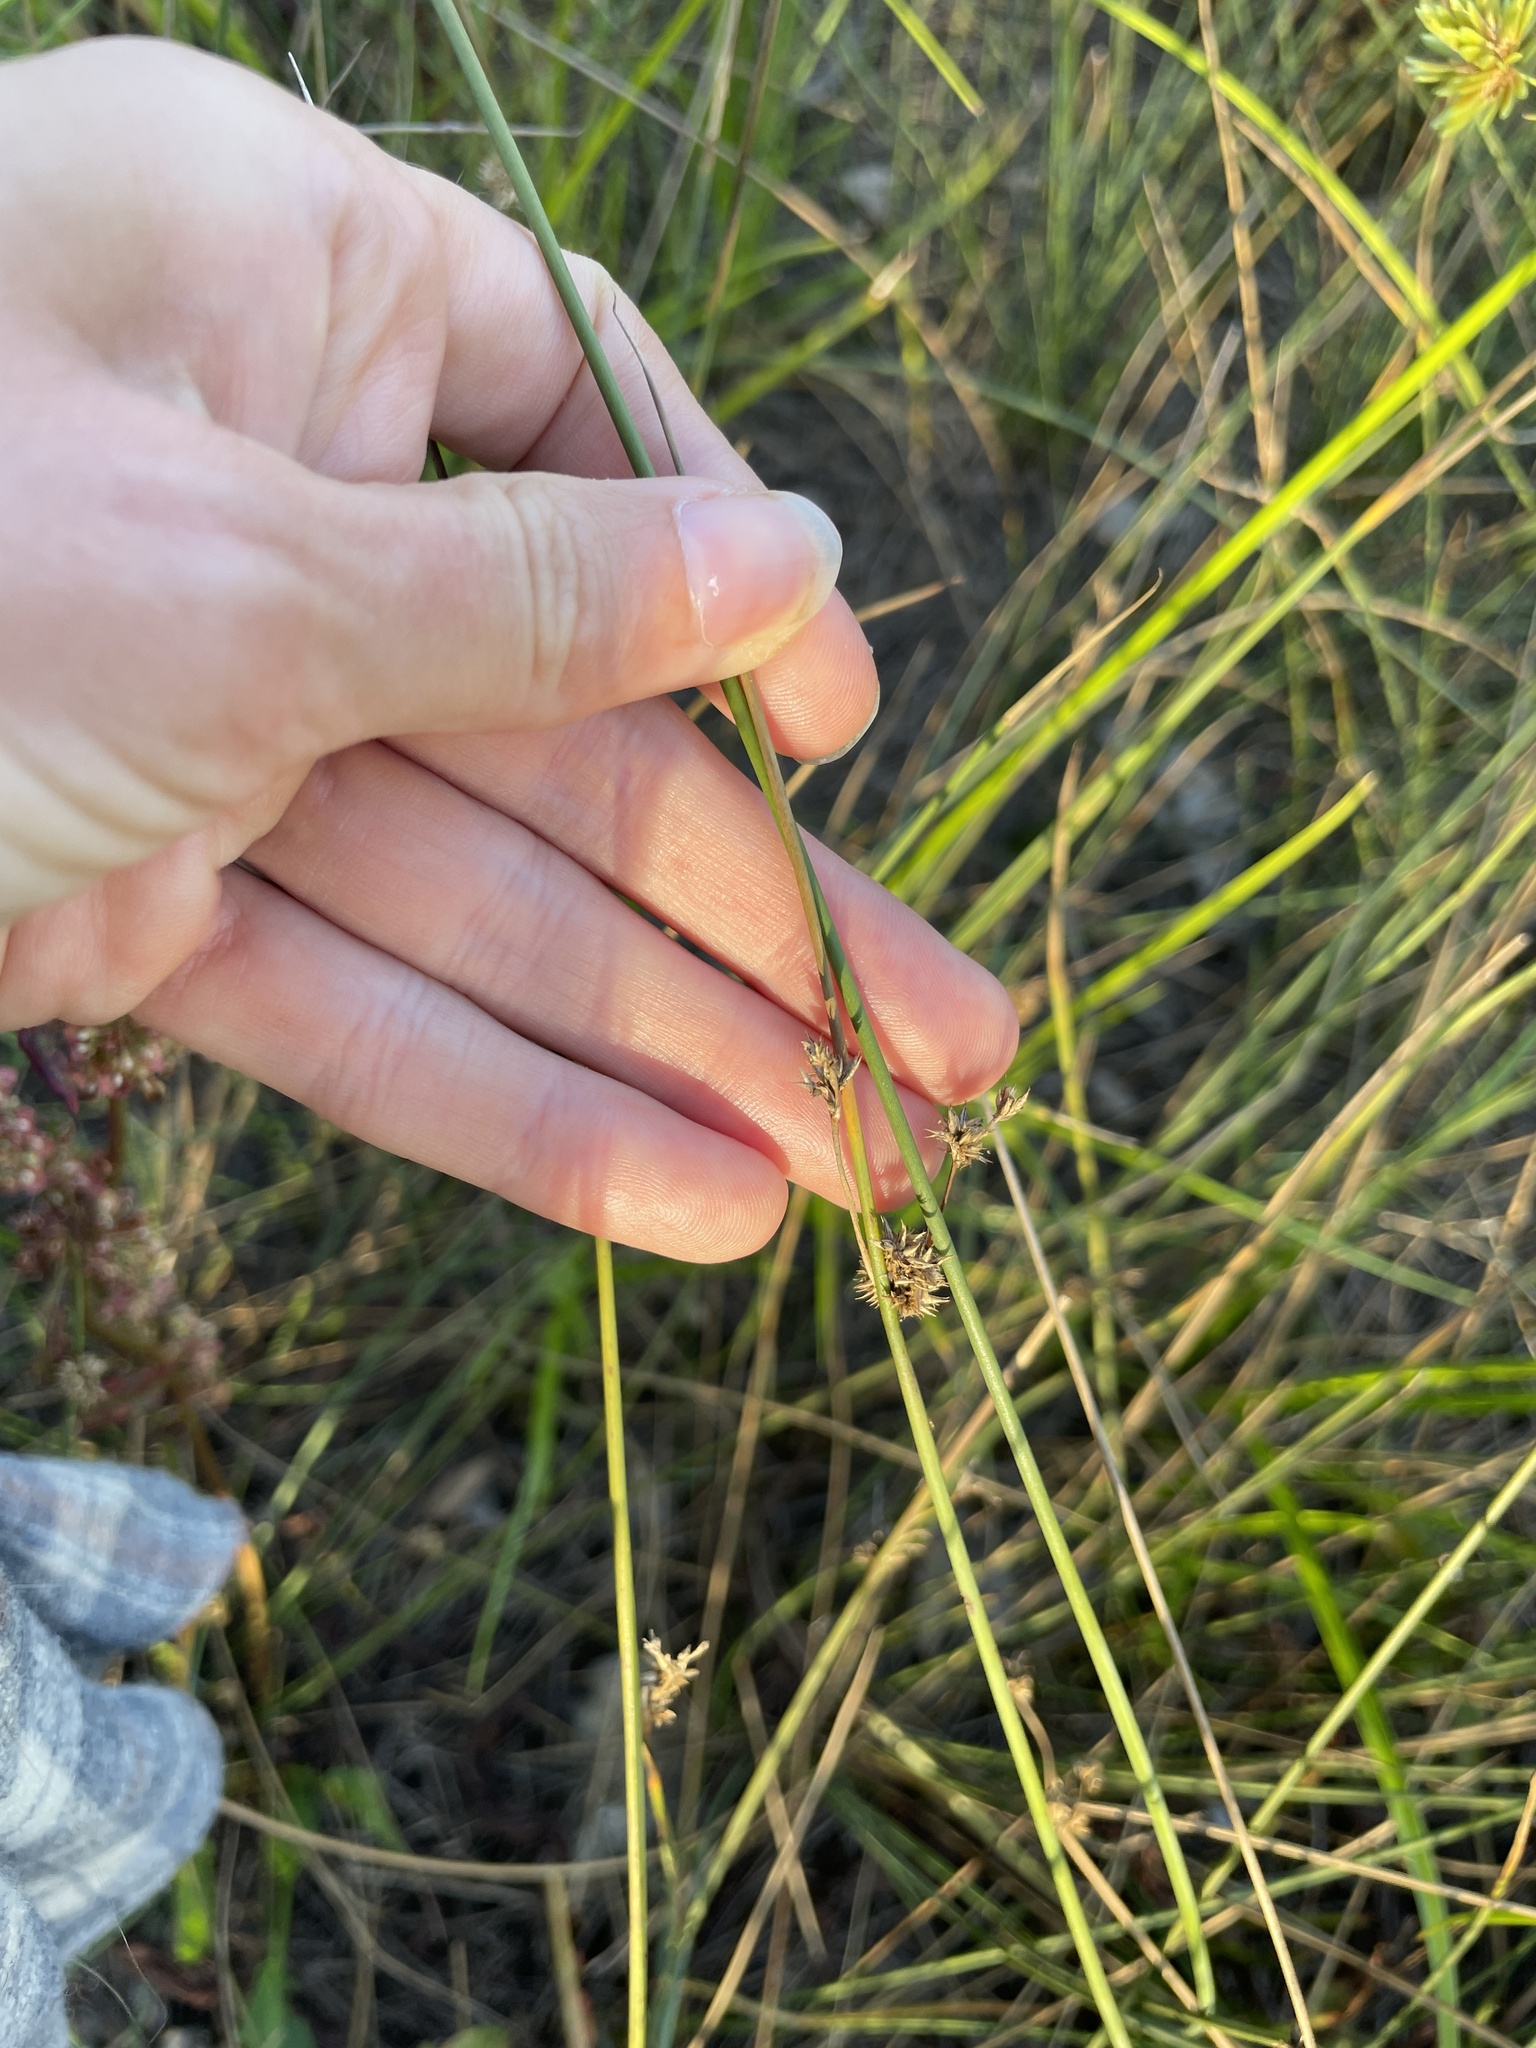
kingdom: Plantae
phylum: Tracheophyta
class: Liliopsida
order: Poales
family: Juncaceae
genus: Juncus
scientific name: Juncus
